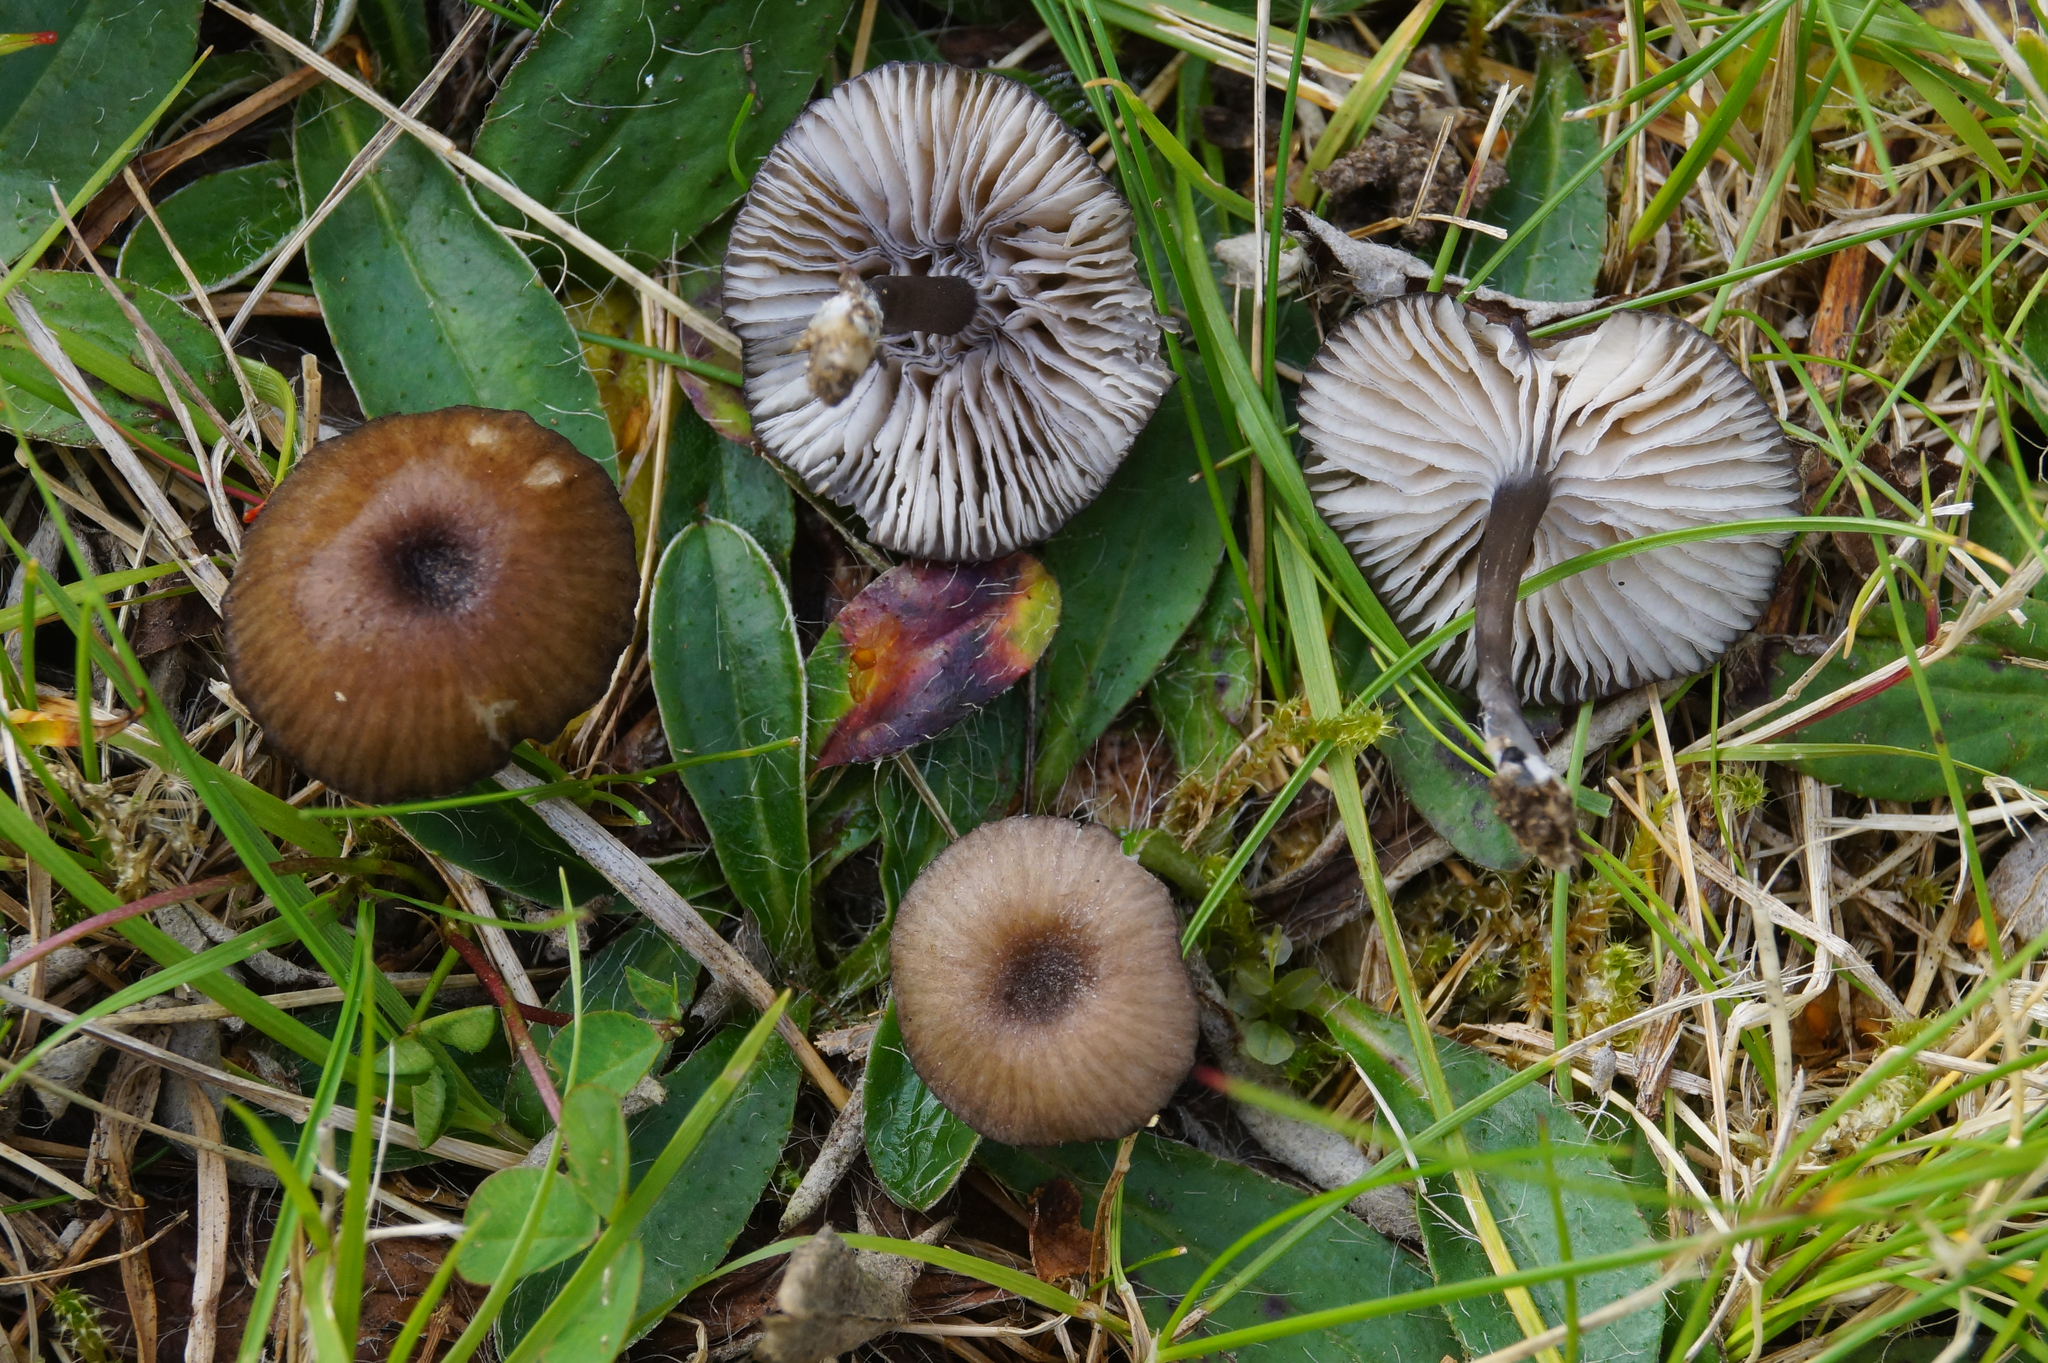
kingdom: Fungi
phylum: Basidiomycota
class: Agaricomycetes
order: Agaricales
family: Entolomataceae
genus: Entoloma
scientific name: Entoloma caesiocinctum
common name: Blue-girdled pinkgill
